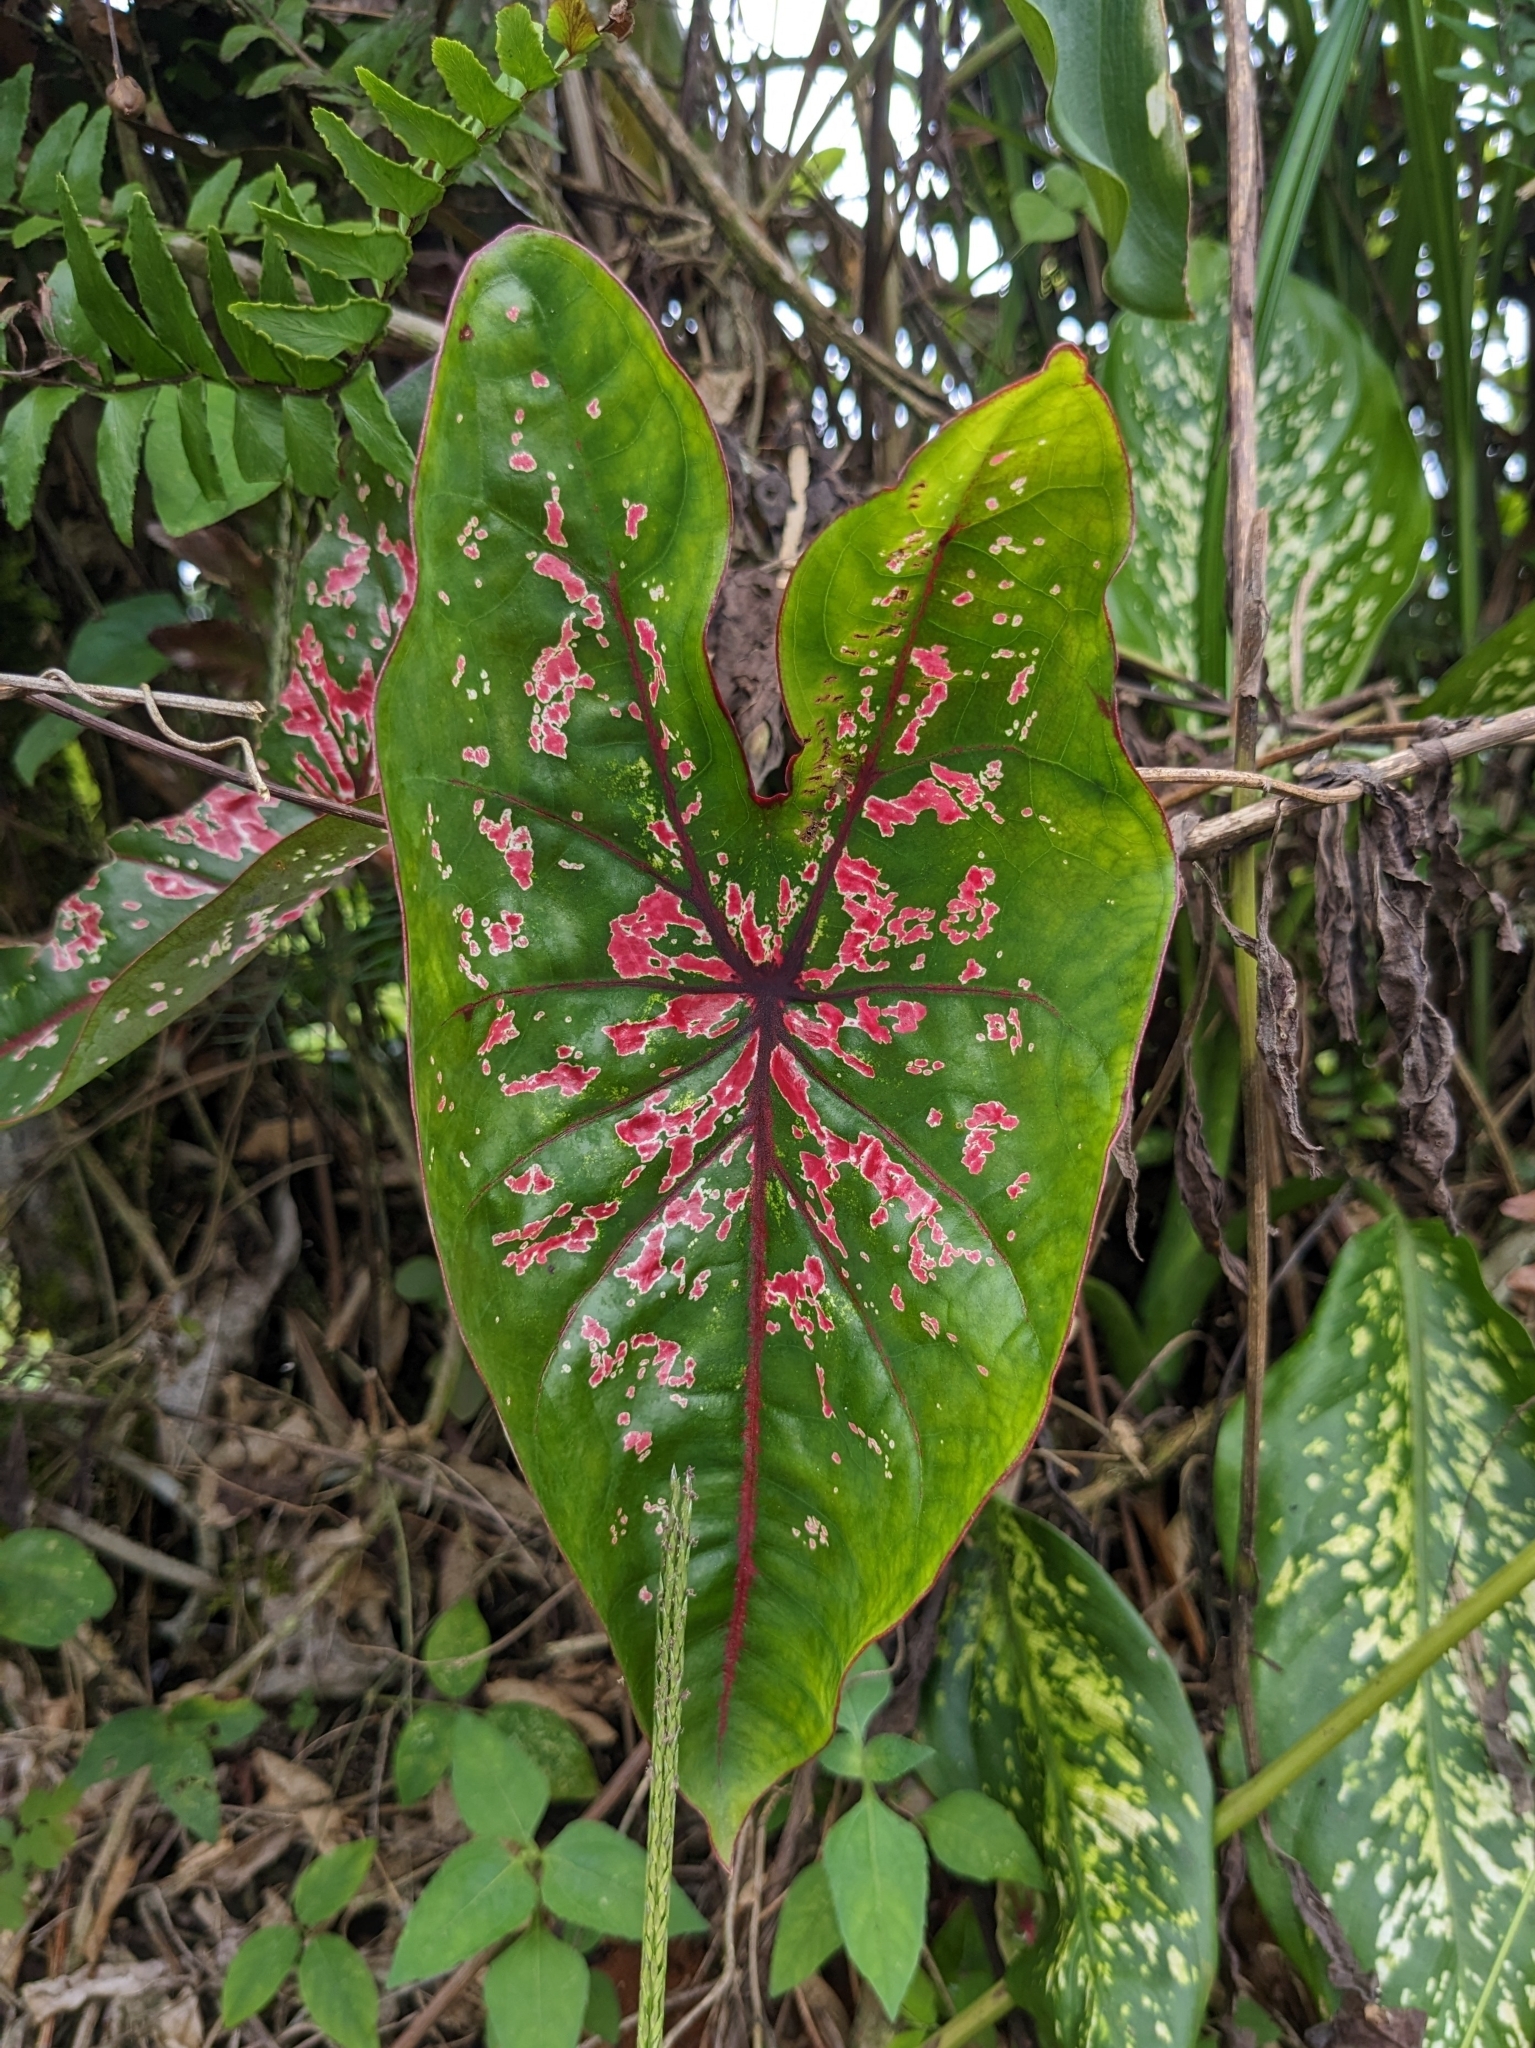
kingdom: Plantae
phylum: Tracheophyta
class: Liliopsida
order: Alismatales
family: Araceae
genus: Caladium
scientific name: Caladium bicolor
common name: Artist's pallet
